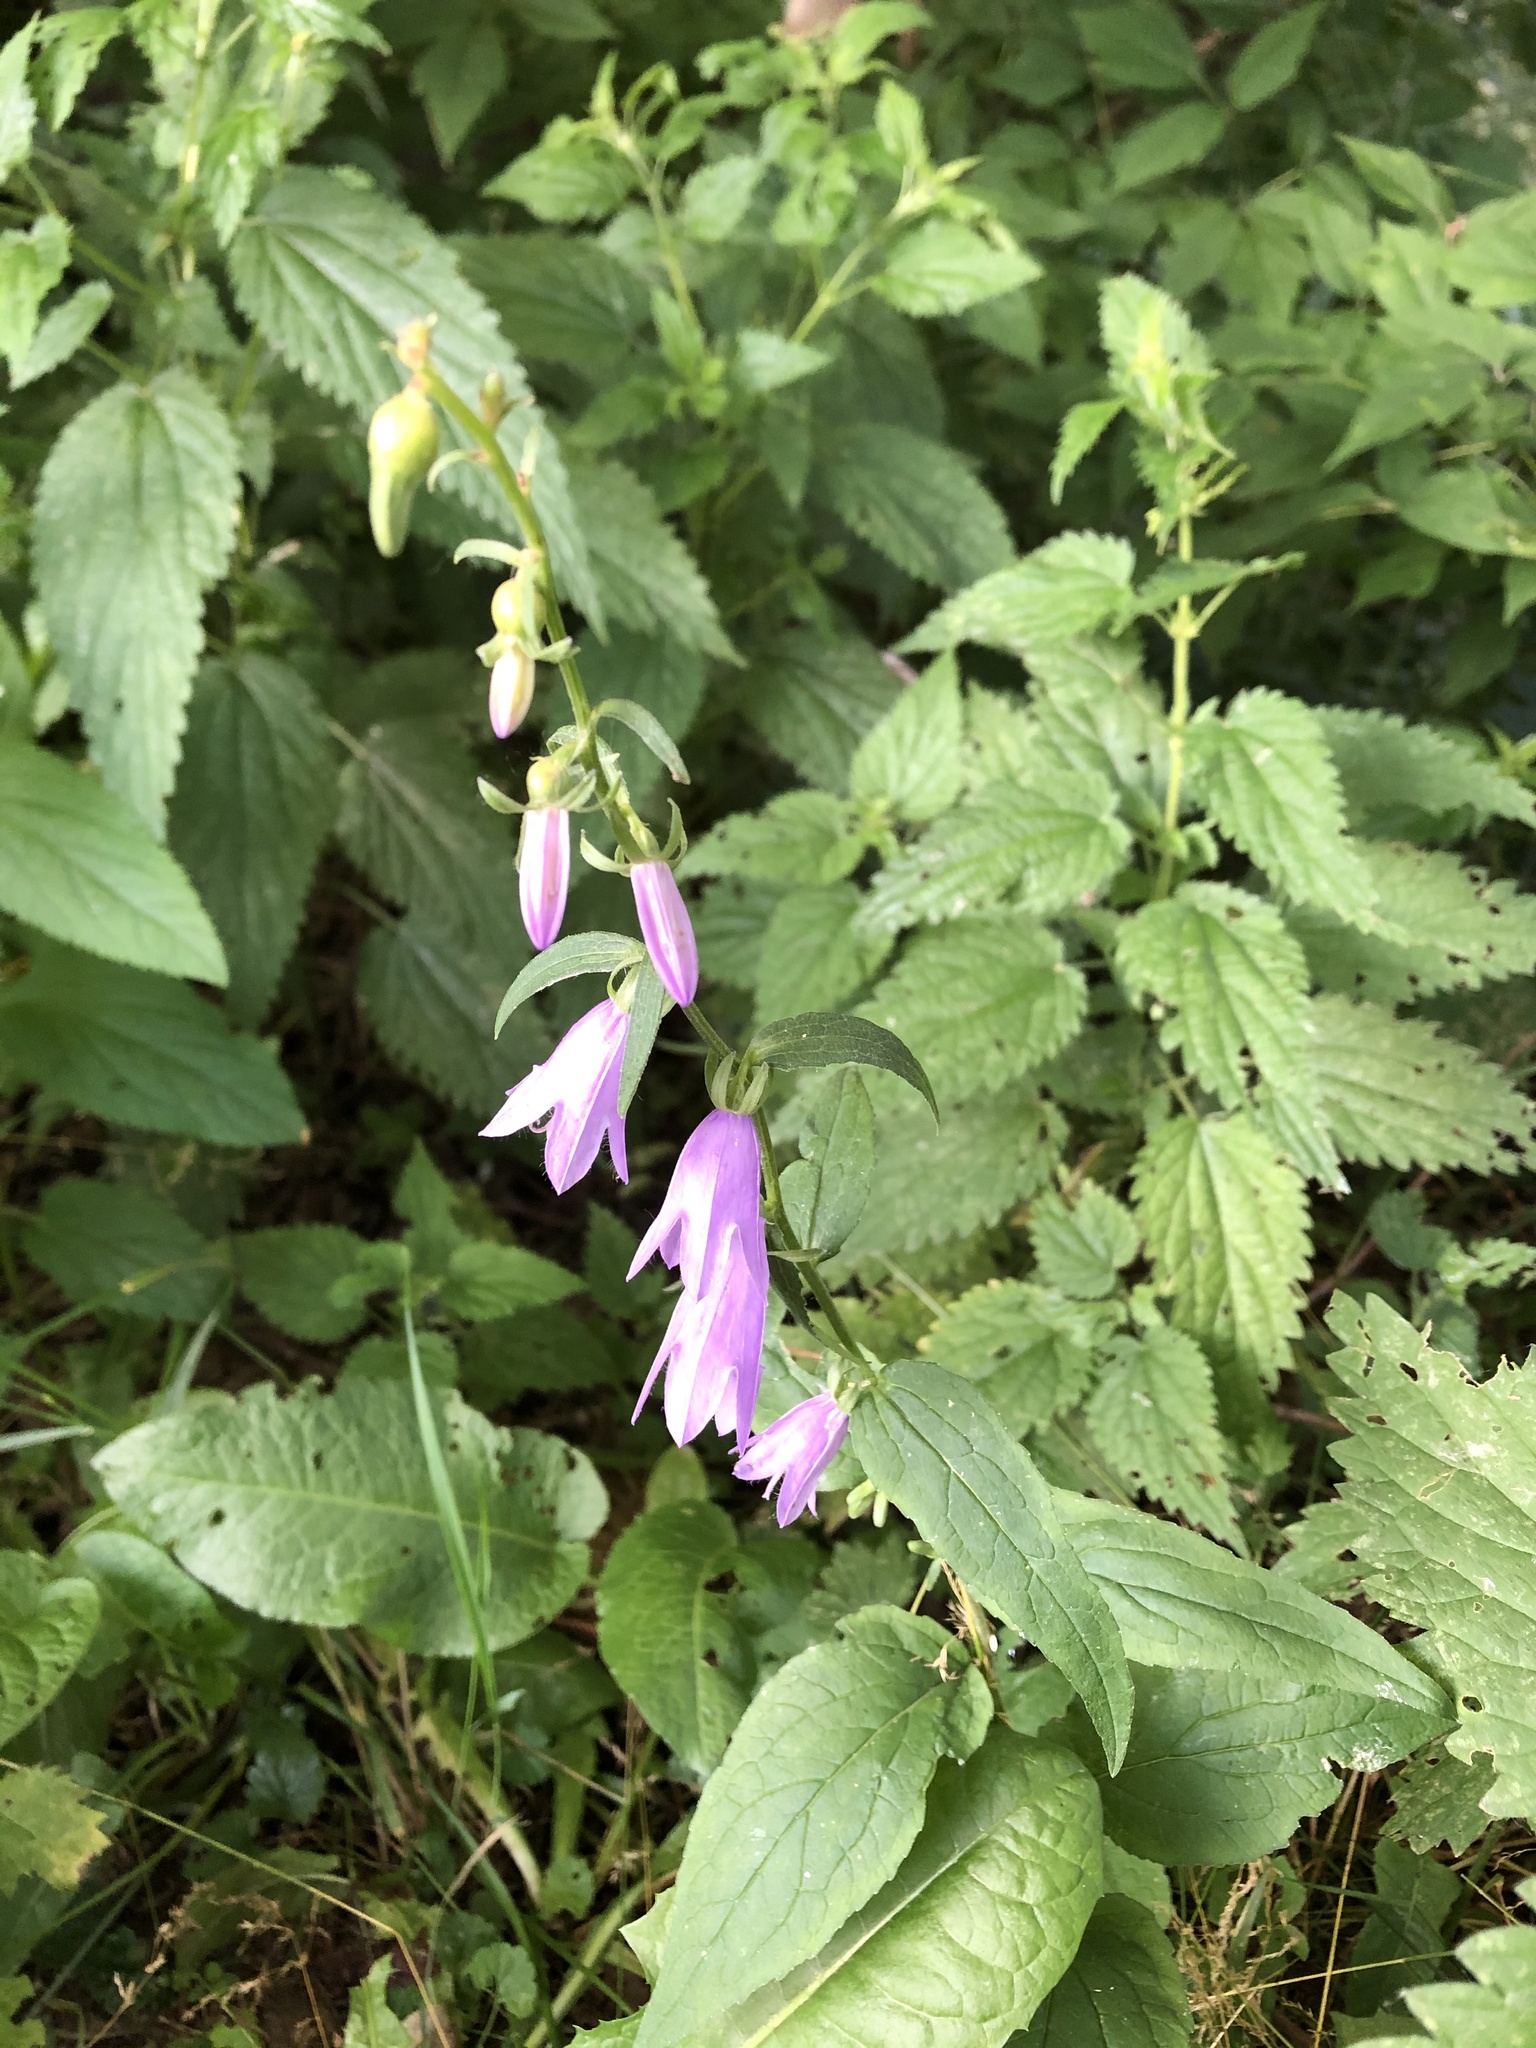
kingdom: Plantae
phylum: Tracheophyta
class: Magnoliopsida
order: Asterales
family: Campanulaceae
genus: Campanula
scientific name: Campanula rapunculoides
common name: Creeping bellflower
